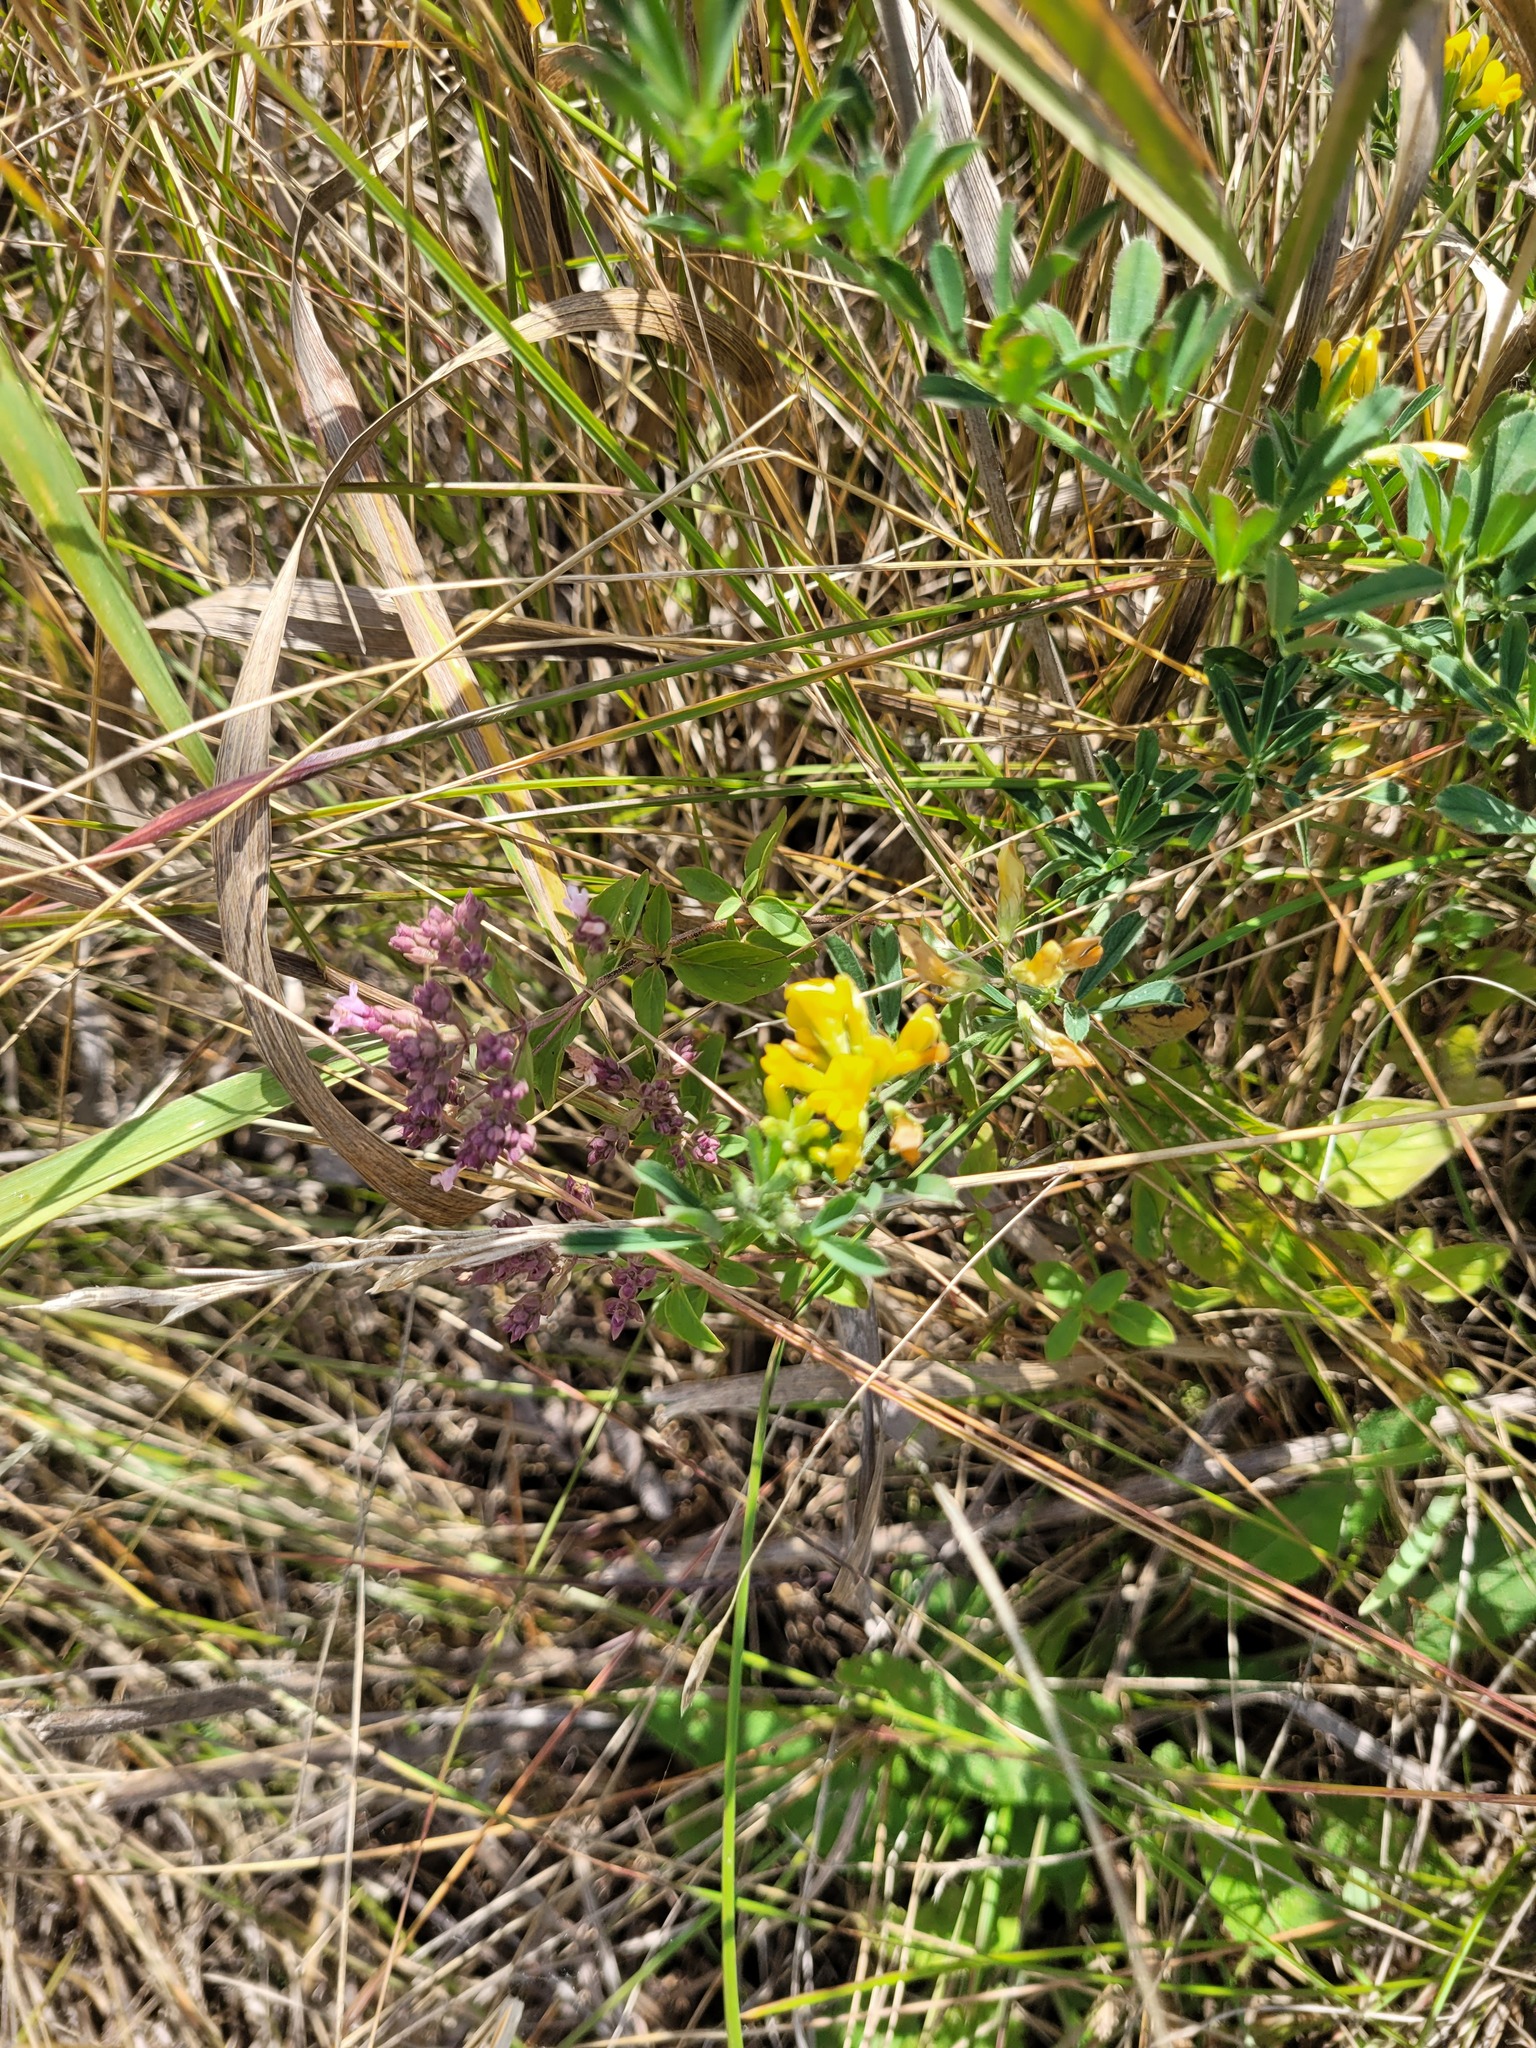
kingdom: Plantae
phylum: Tracheophyta
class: Magnoliopsida
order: Fabales
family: Fabaceae
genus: Medicago
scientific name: Medicago falcata
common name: Sickle medick
